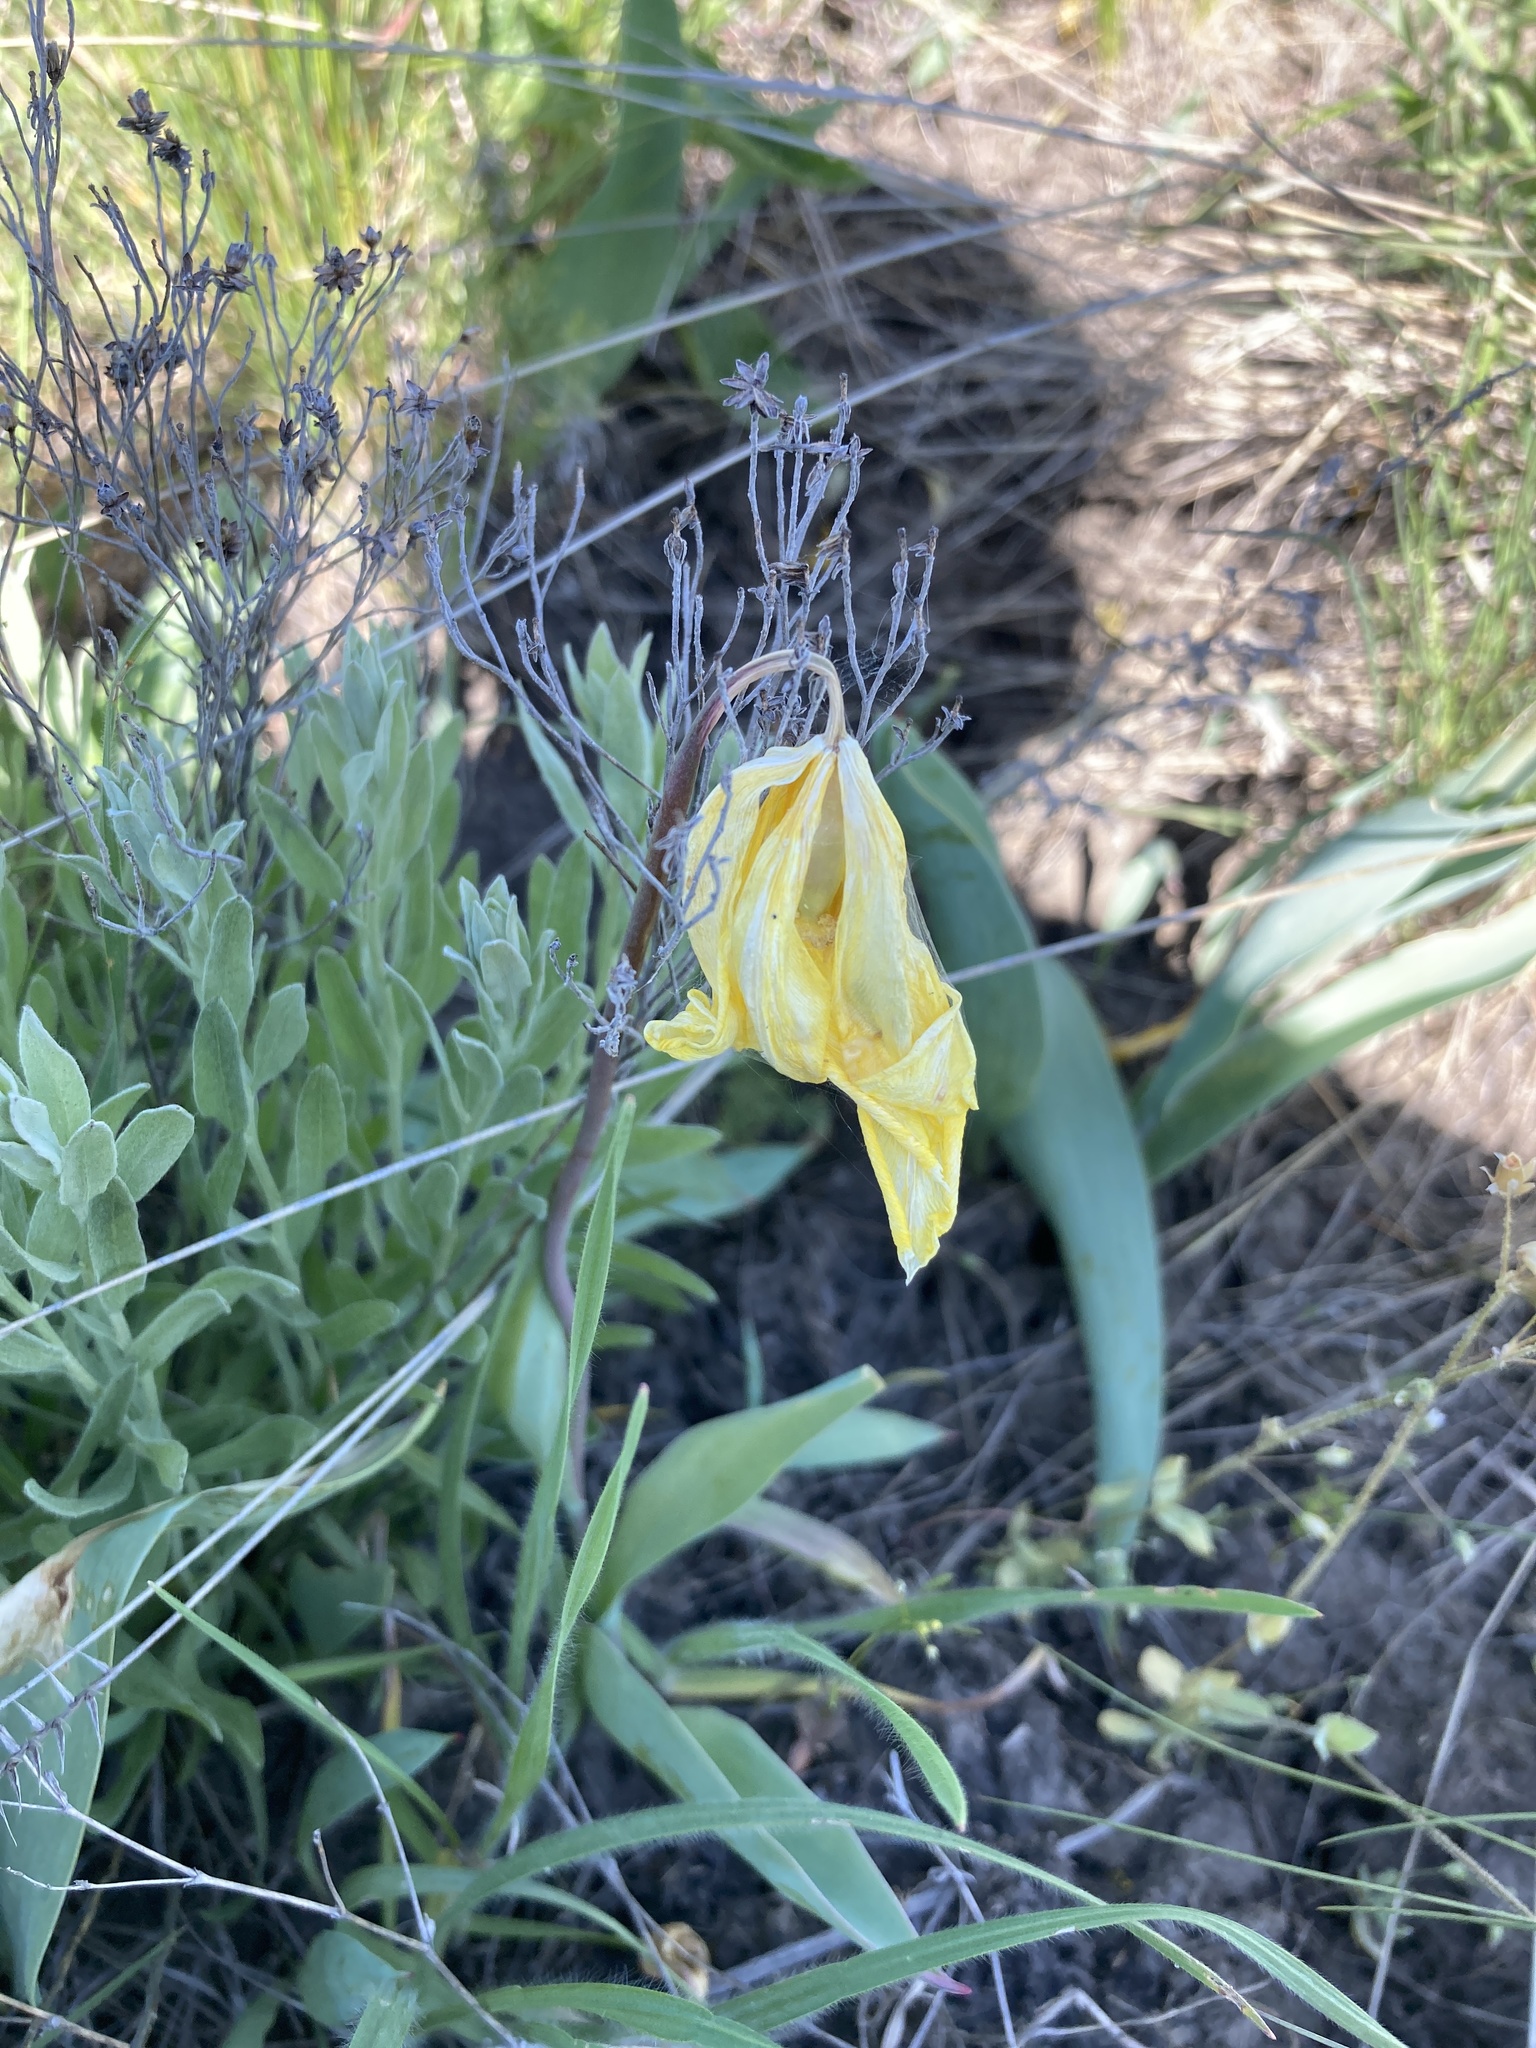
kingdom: Plantae
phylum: Tracheophyta
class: Liliopsida
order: Liliales
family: Liliaceae
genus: Tulipa
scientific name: Tulipa sylvestris
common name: Wild tulip
